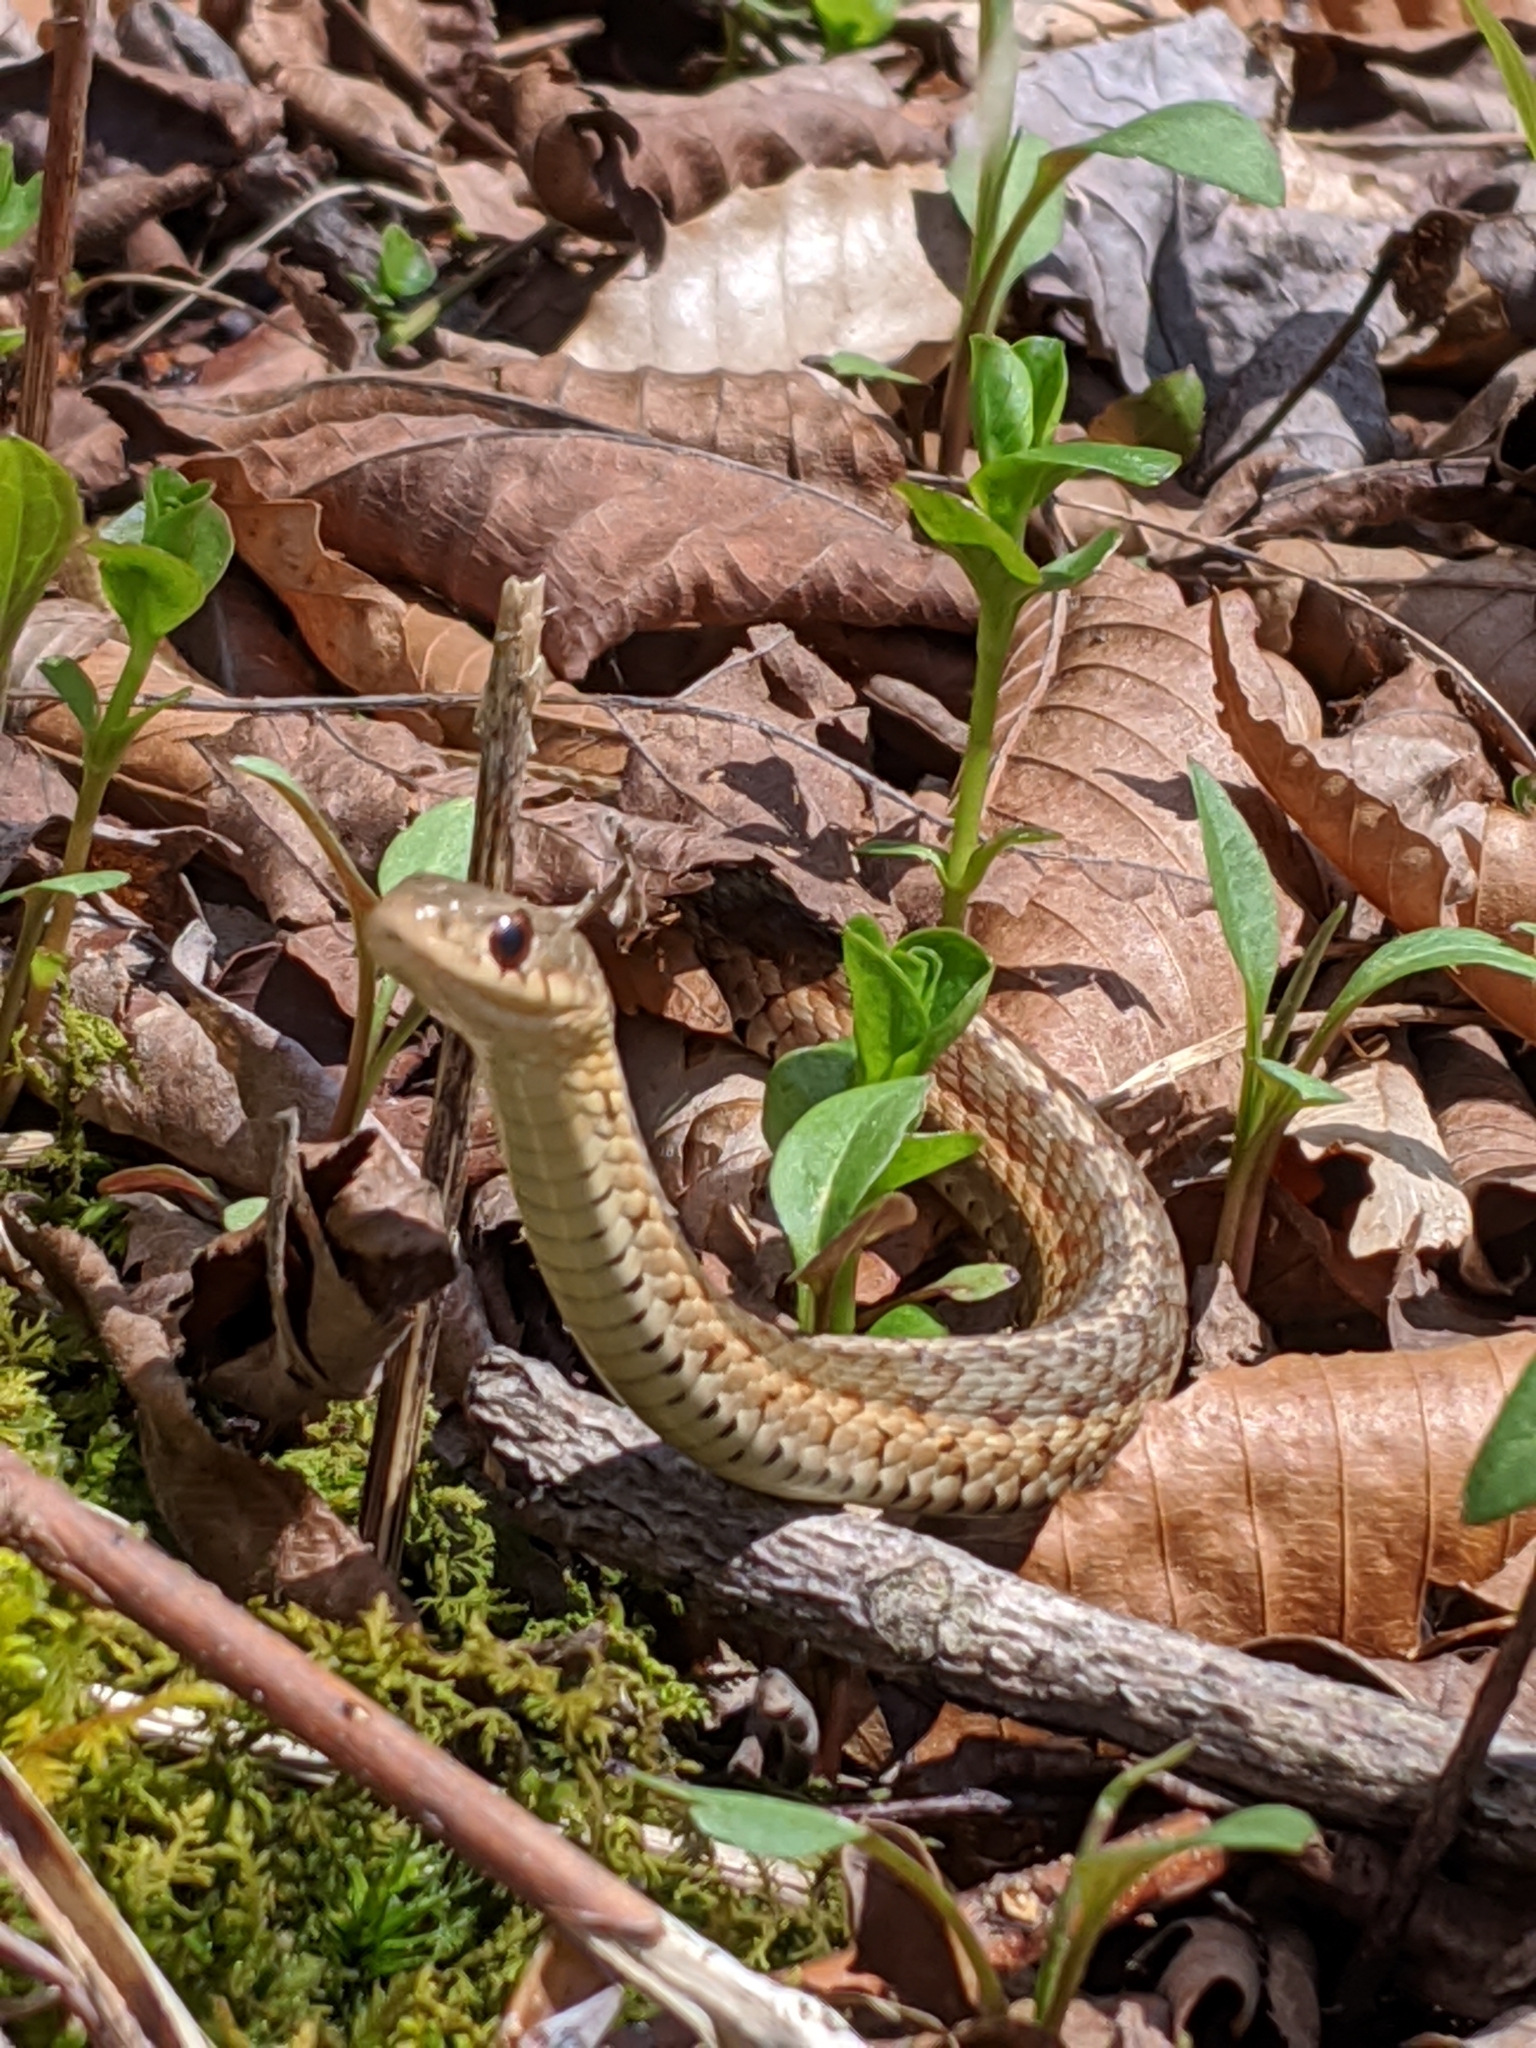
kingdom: Animalia
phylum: Chordata
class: Squamata
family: Colubridae
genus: Thamnophis
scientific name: Thamnophis sirtalis
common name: Common garter snake
